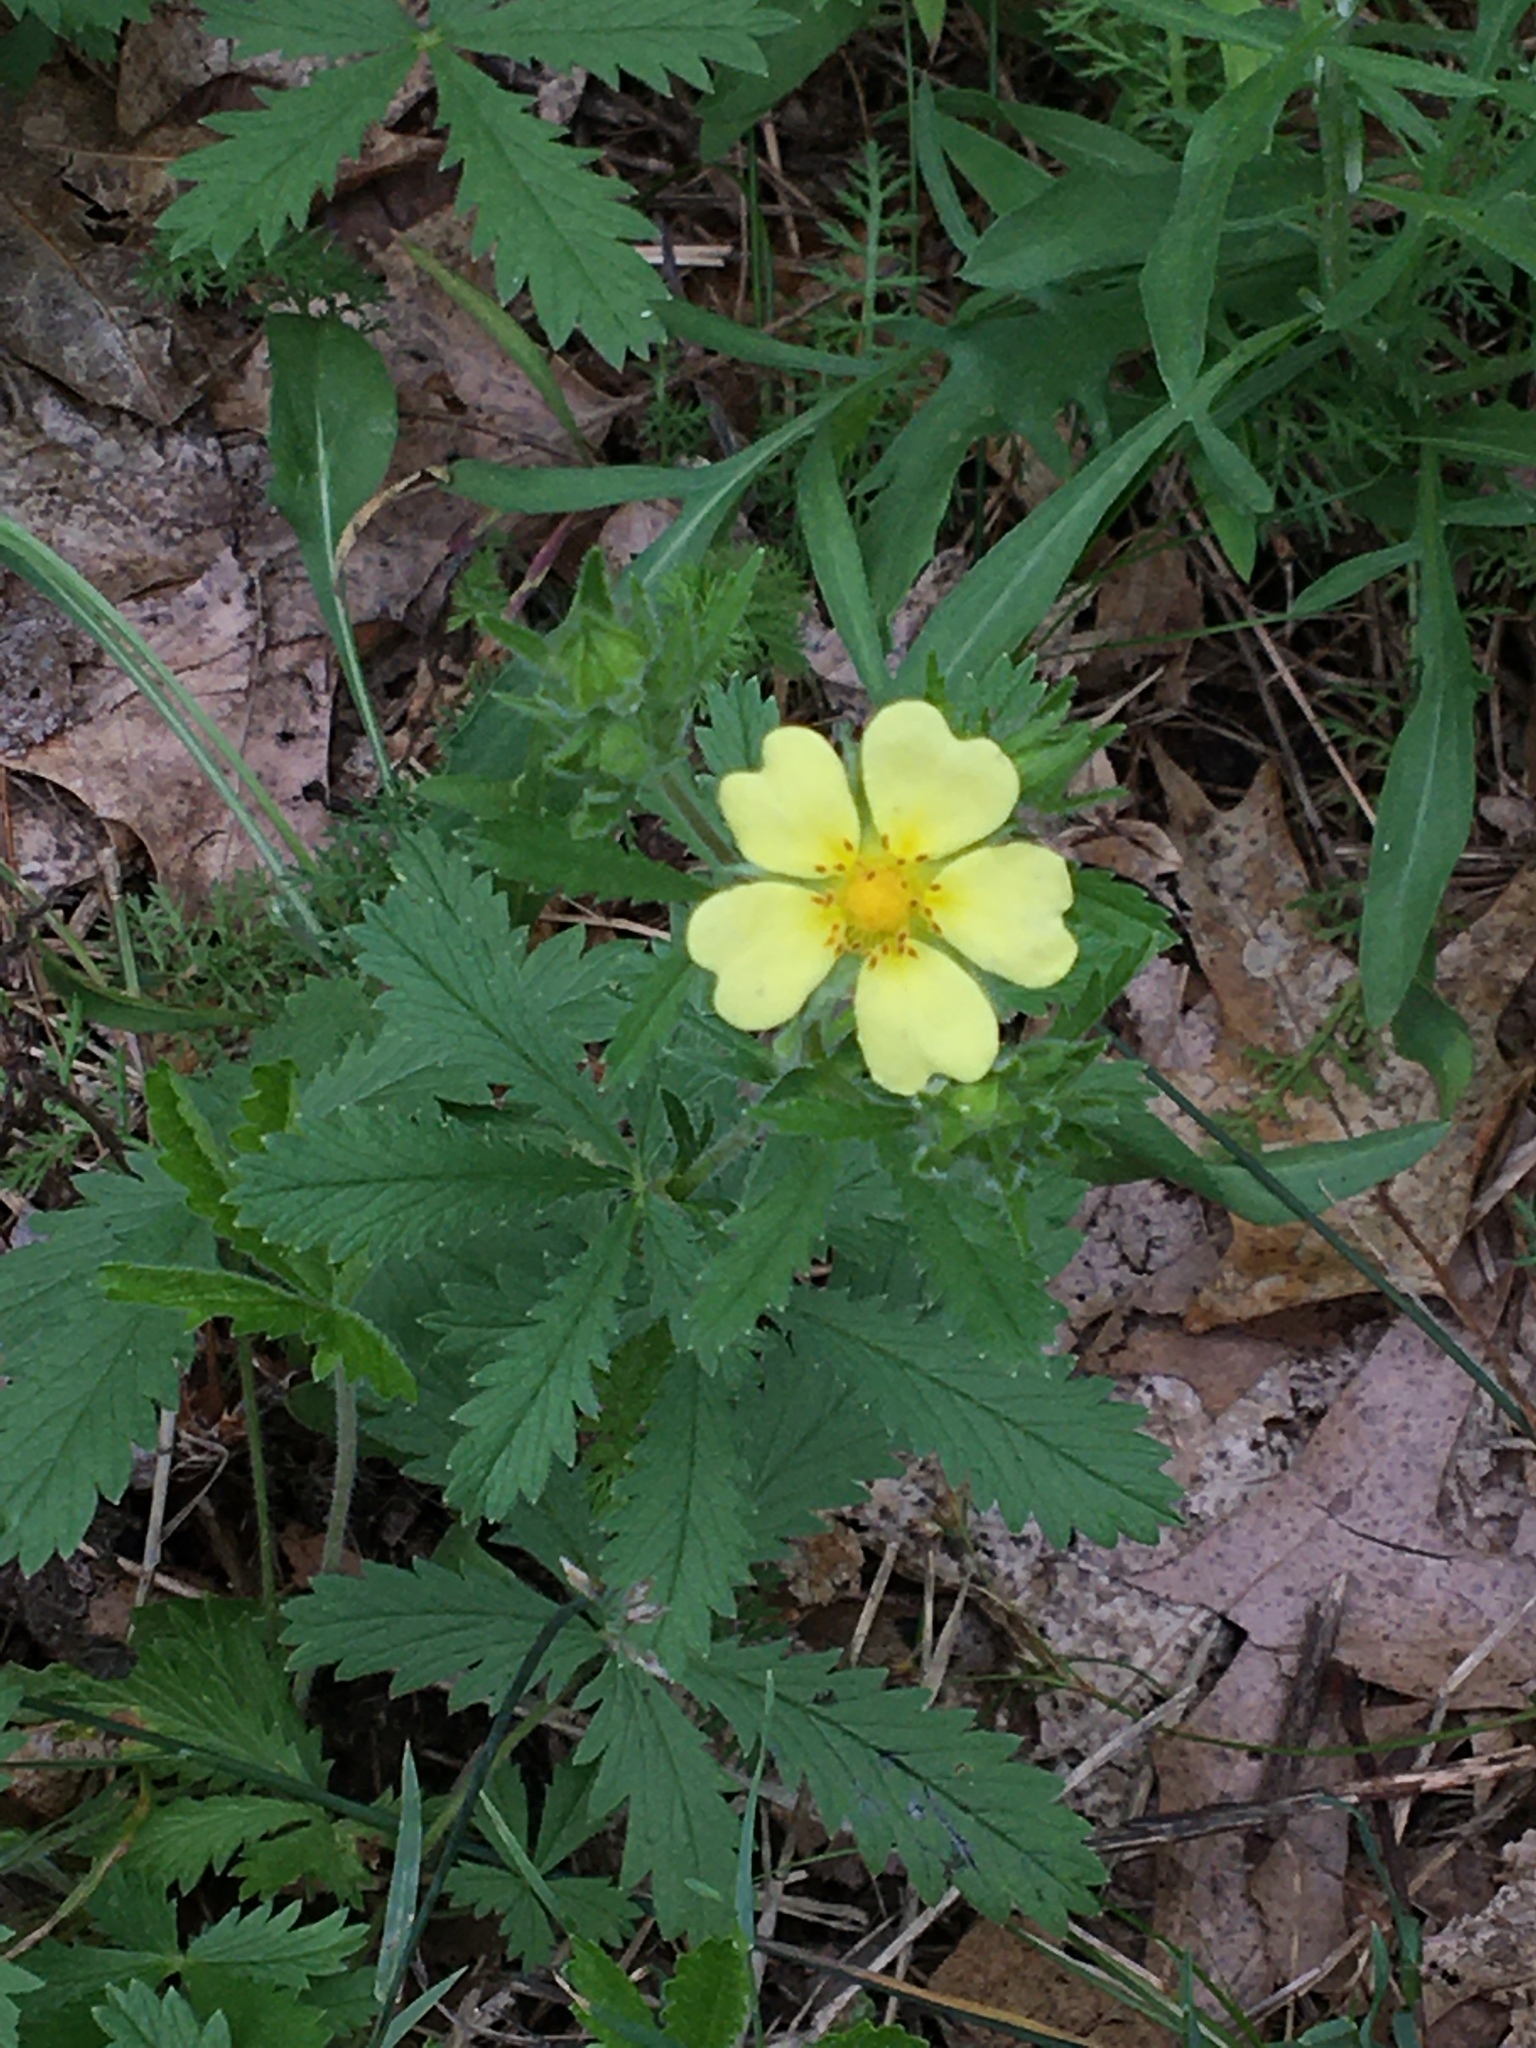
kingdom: Plantae
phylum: Tracheophyta
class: Magnoliopsida
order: Rosales
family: Rosaceae
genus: Potentilla
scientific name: Potentilla recta
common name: Sulphur cinquefoil
